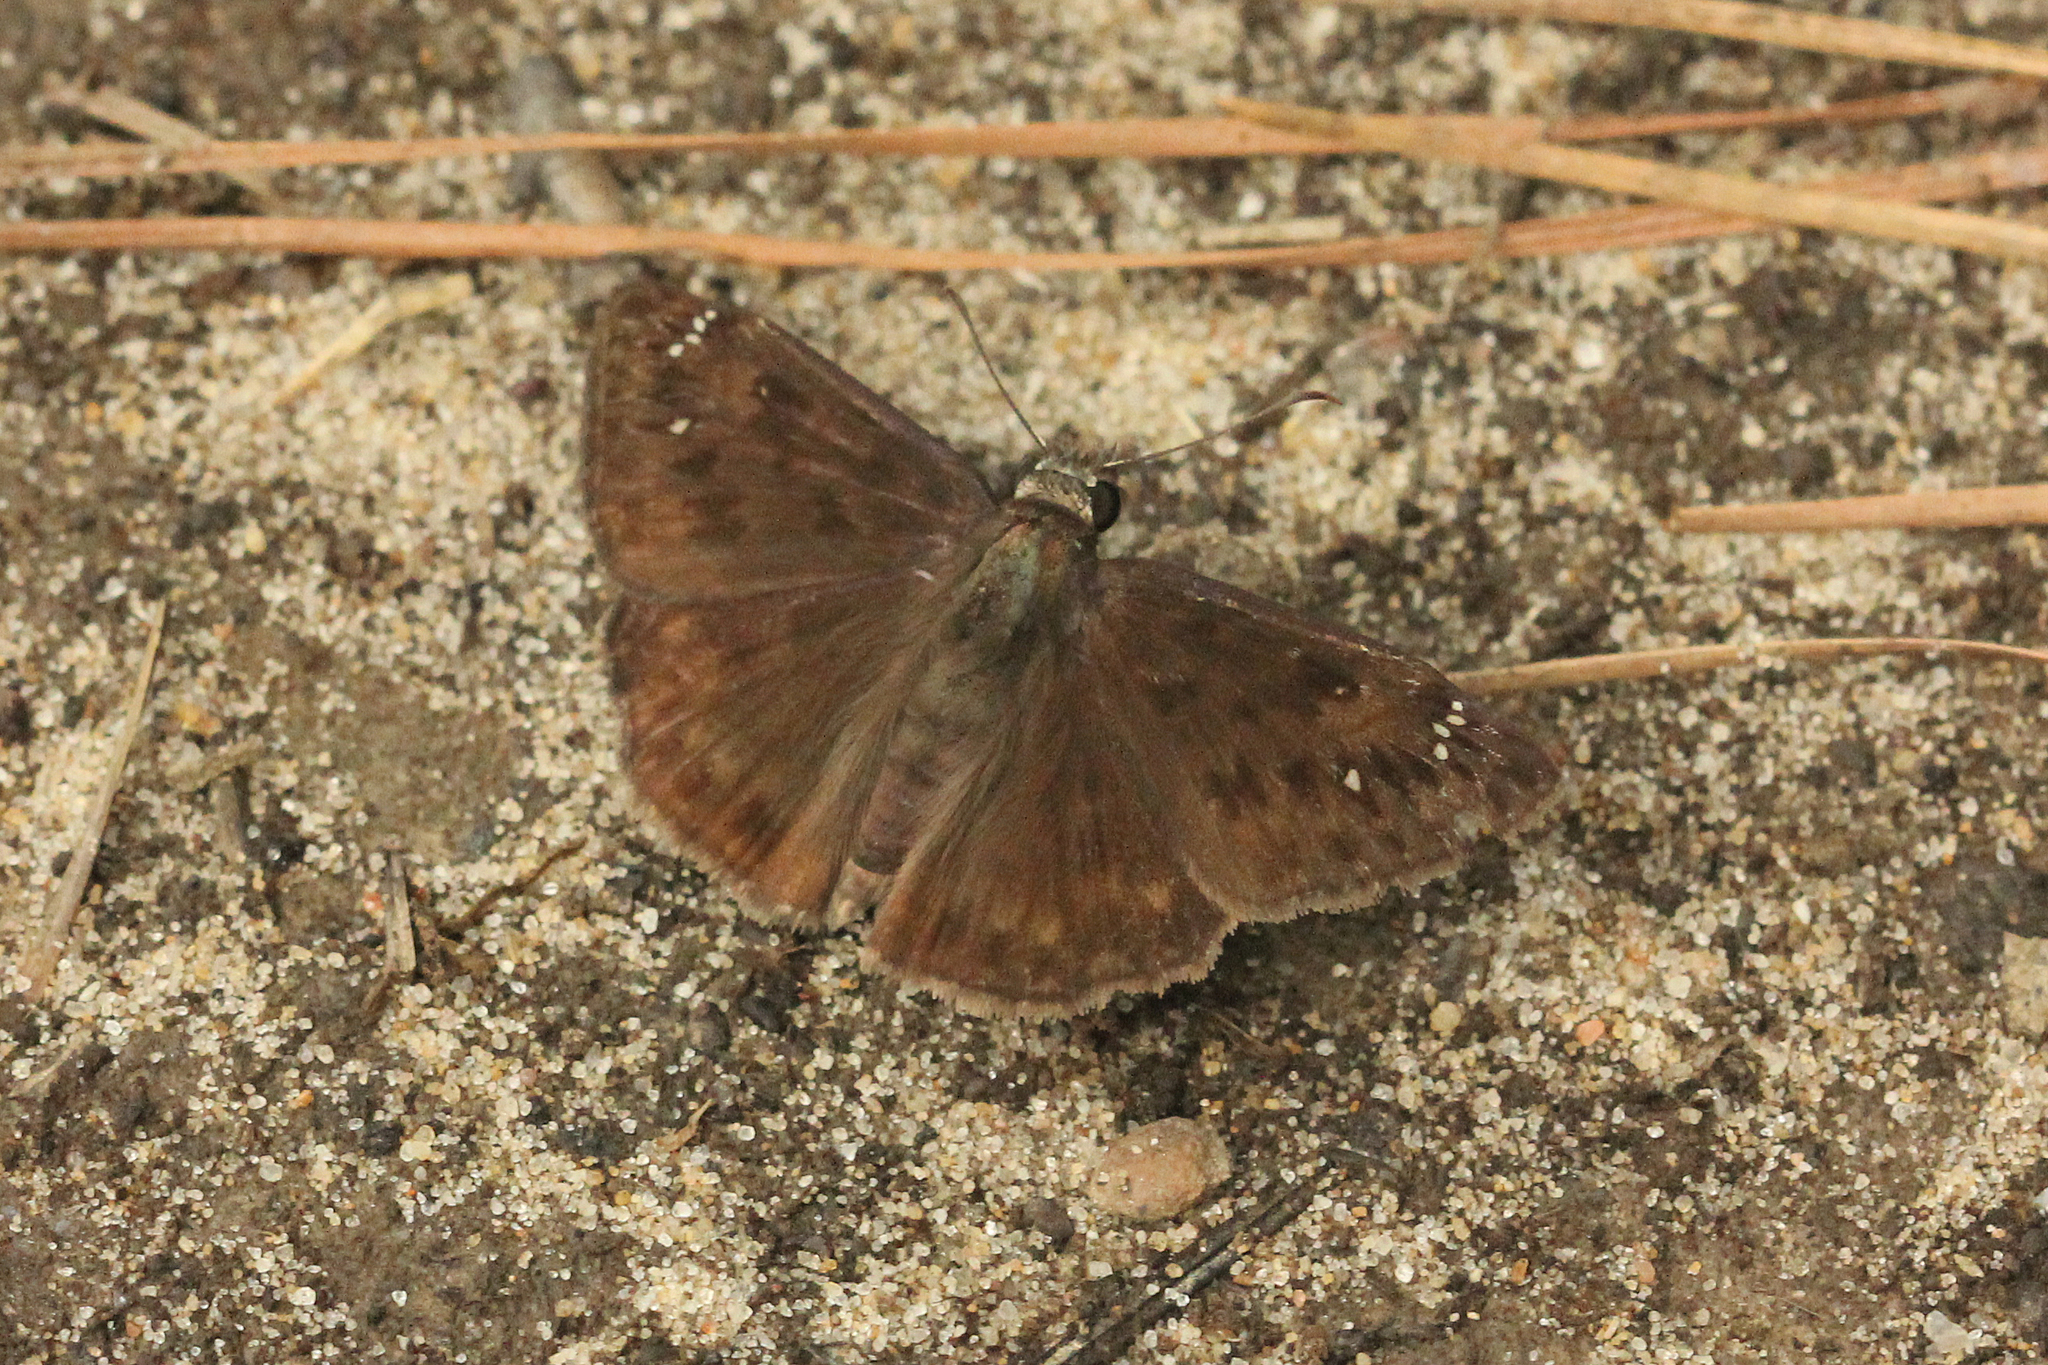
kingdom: Animalia
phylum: Arthropoda
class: Insecta
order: Lepidoptera
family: Hesperiidae
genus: Erynnis
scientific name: Erynnis horatius
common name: Horace's duskywing
